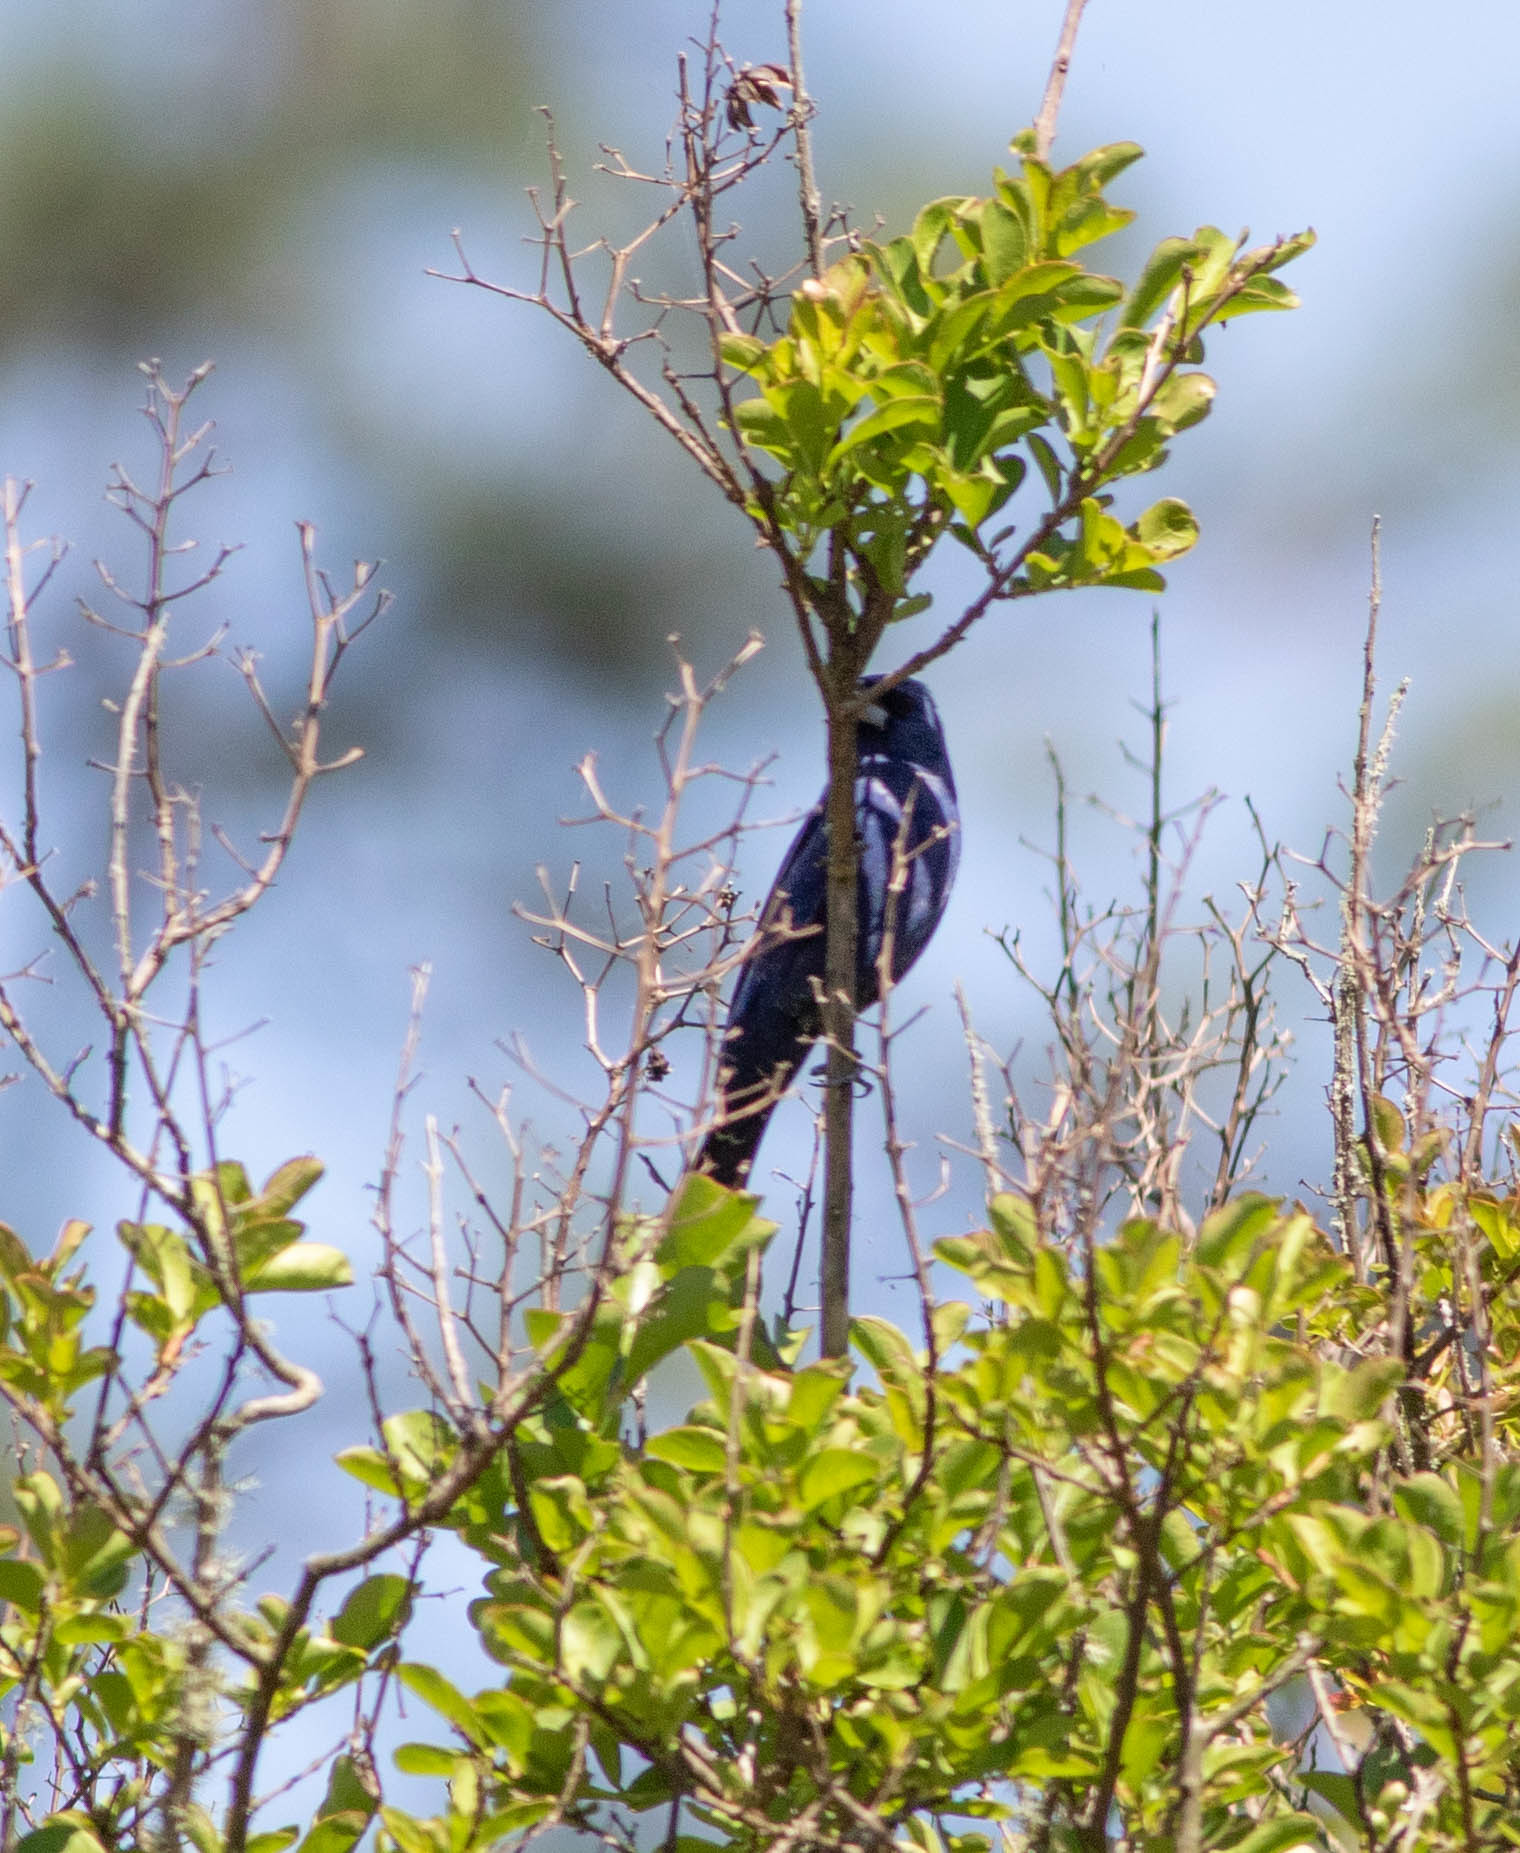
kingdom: Animalia
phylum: Chordata
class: Aves
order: Passeriformes
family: Cardinalidae
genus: Passerina
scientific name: Passerina caerulea
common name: Blue grosbeak
